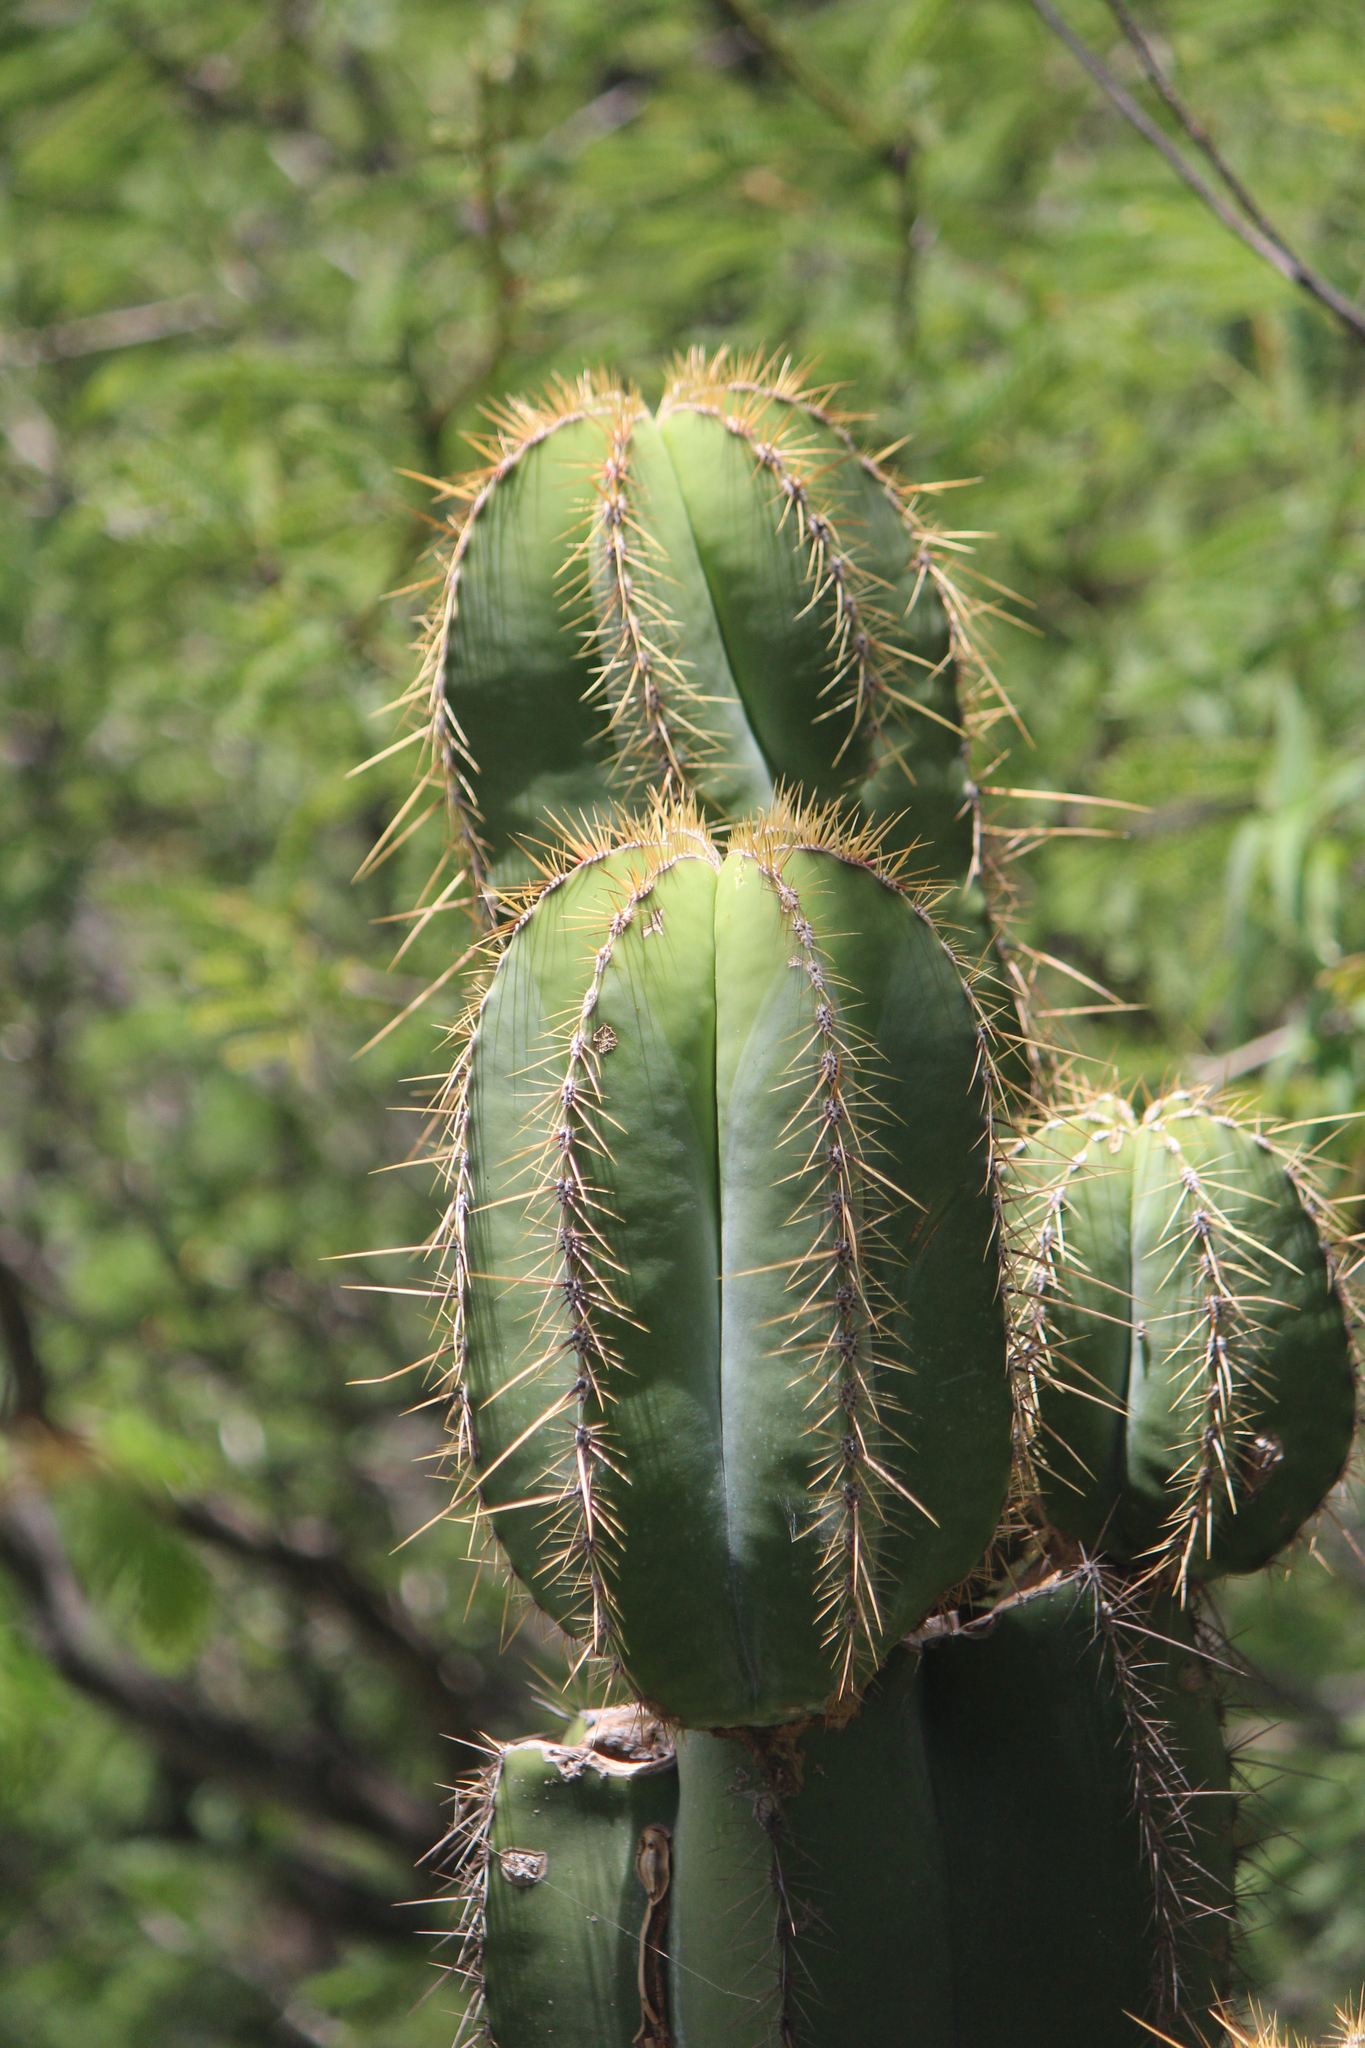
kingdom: Plantae
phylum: Tracheophyta
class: Magnoliopsida
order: Caryophyllales
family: Cactaceae
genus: Stenocereus
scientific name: Stenocereus dumortieri
